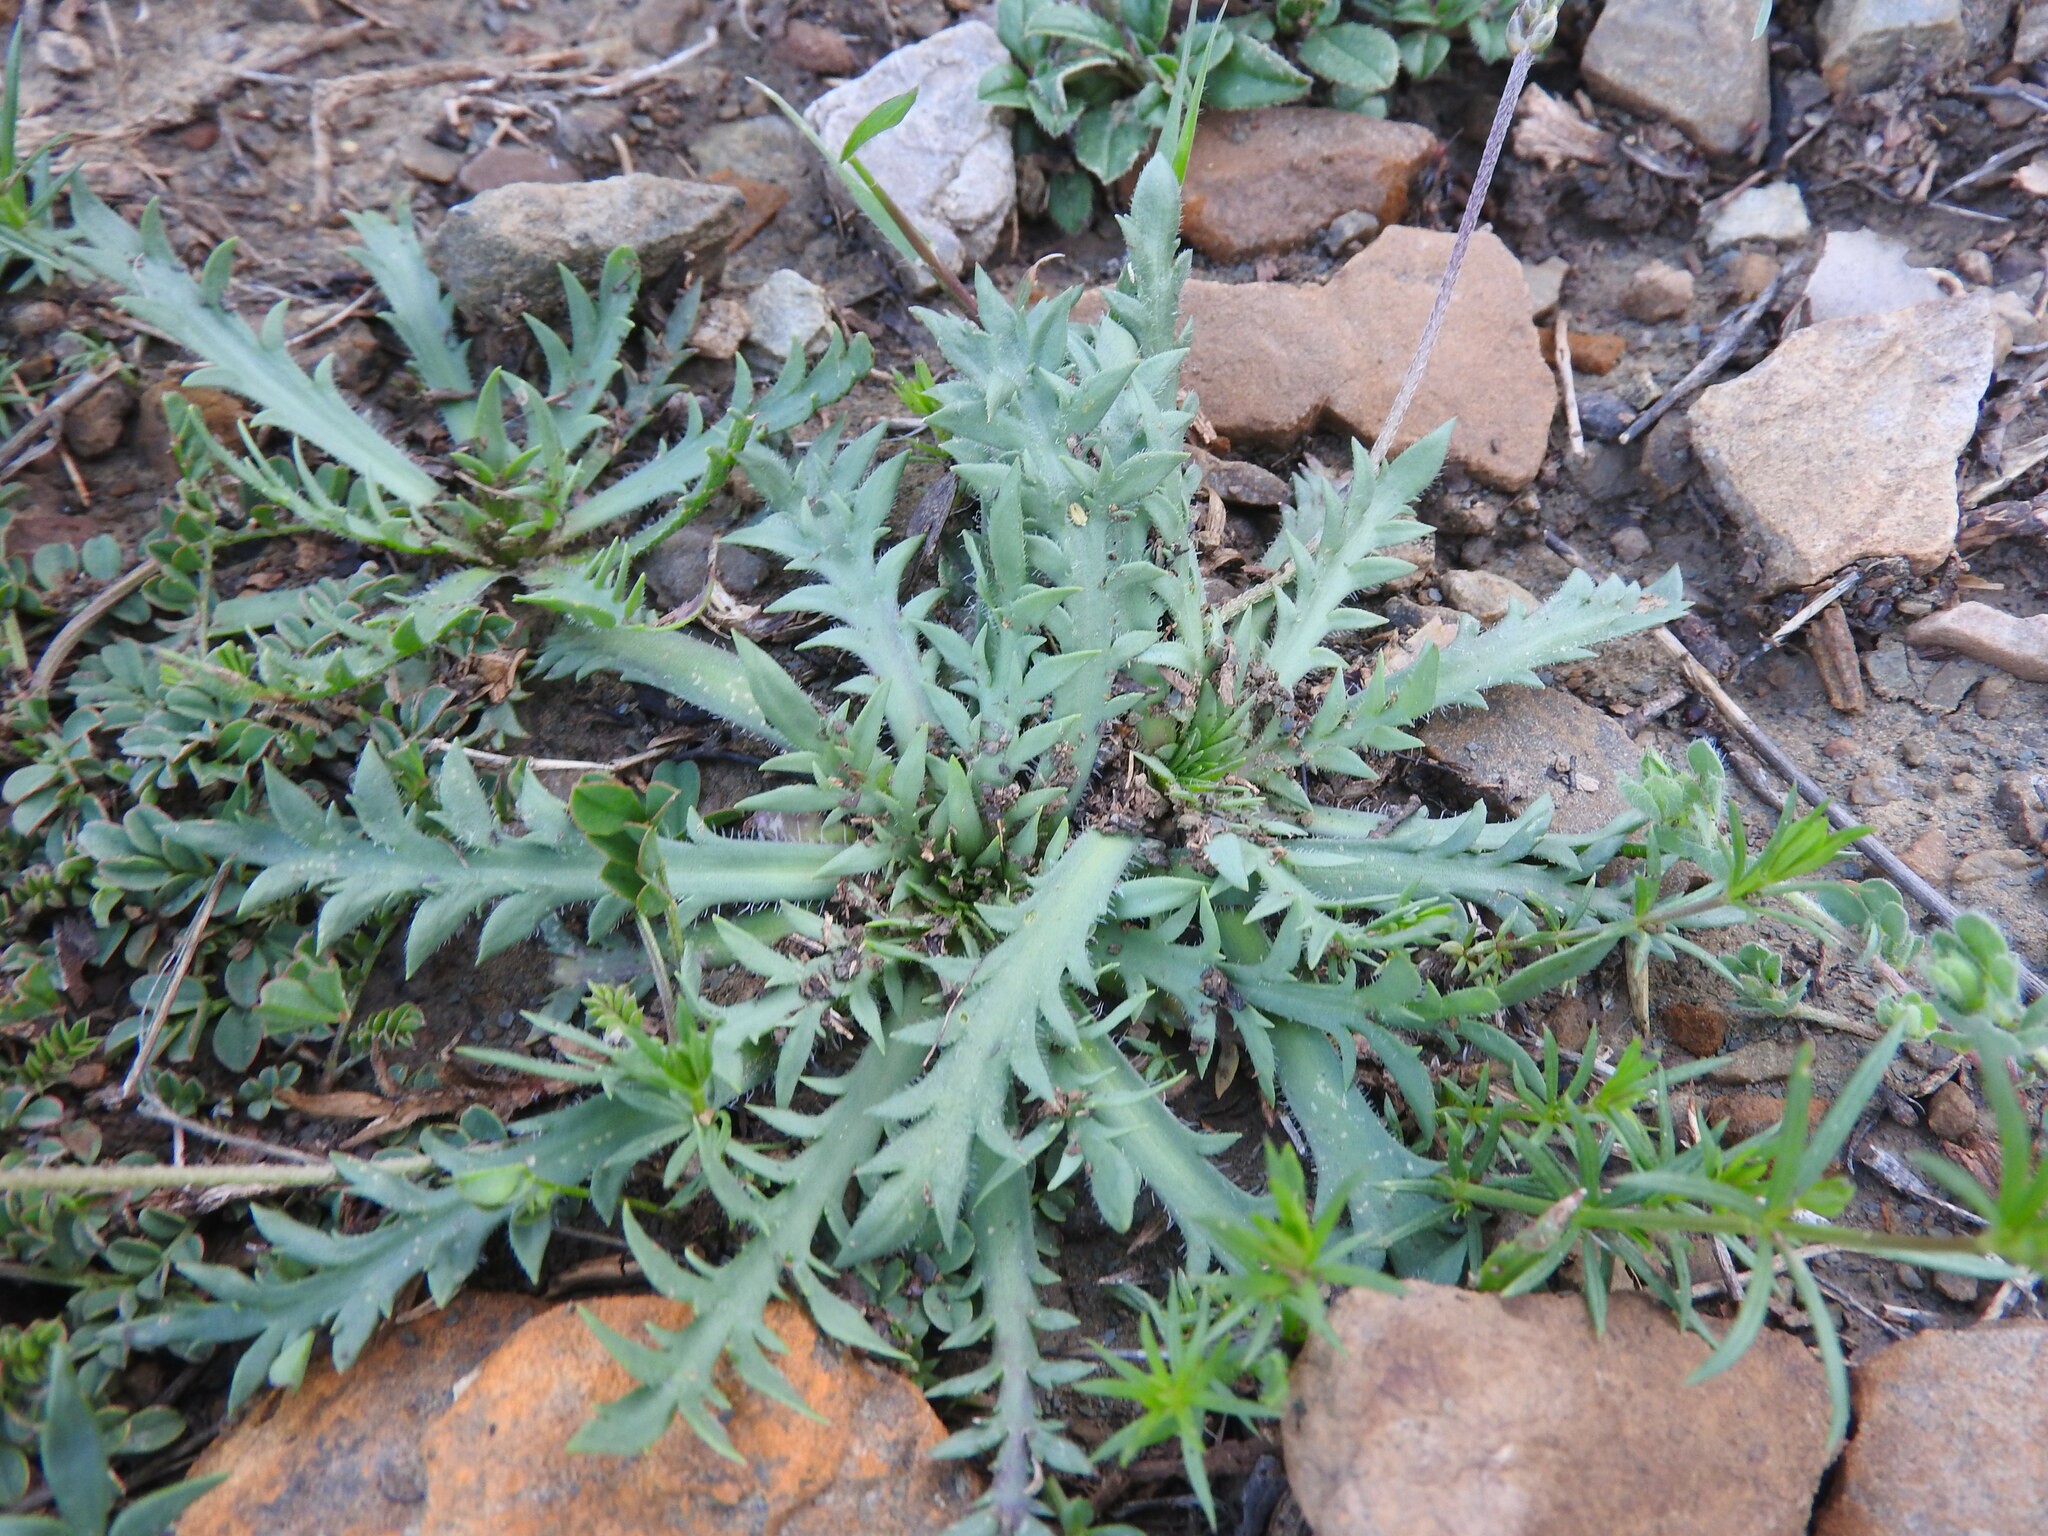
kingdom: Plantae
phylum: Tracheophyta
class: Magnoliopsida
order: Lamiales
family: Plantaginaceae
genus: Plantago
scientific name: Plantago coronopus
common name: Buck's-horn plantain
